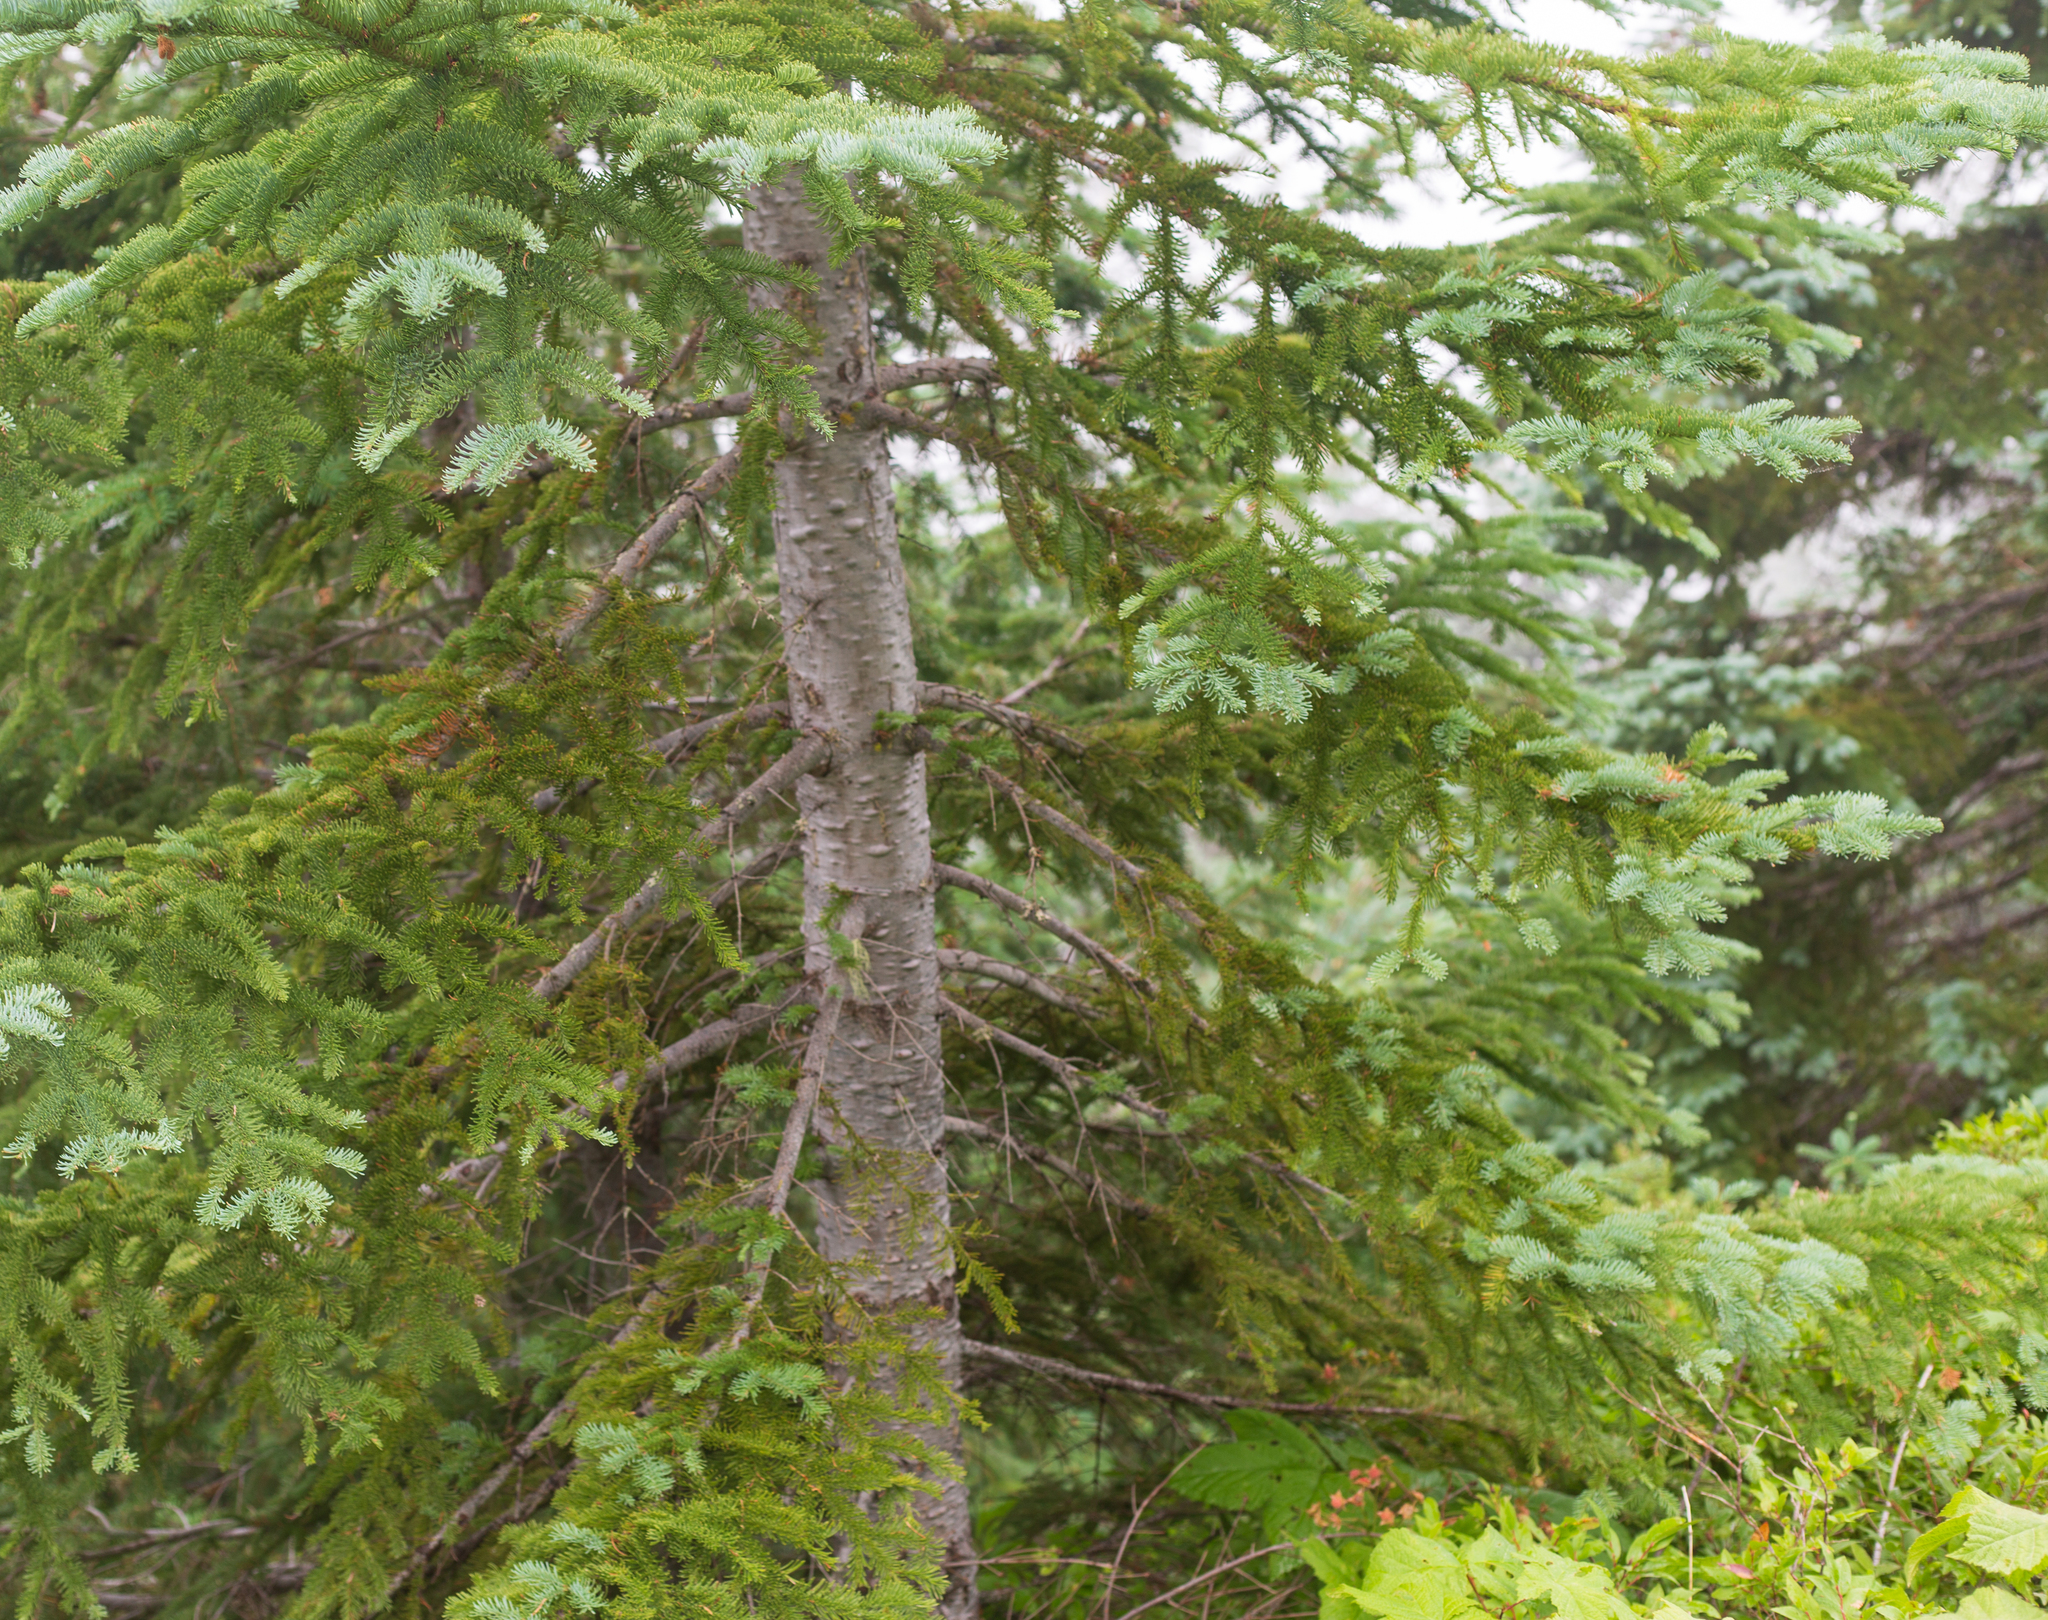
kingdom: Plantae
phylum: Tracheophyta
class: Pinopsida
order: Pinales
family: Pinaceae
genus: Abies
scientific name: Abies procera
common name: Noble fir
